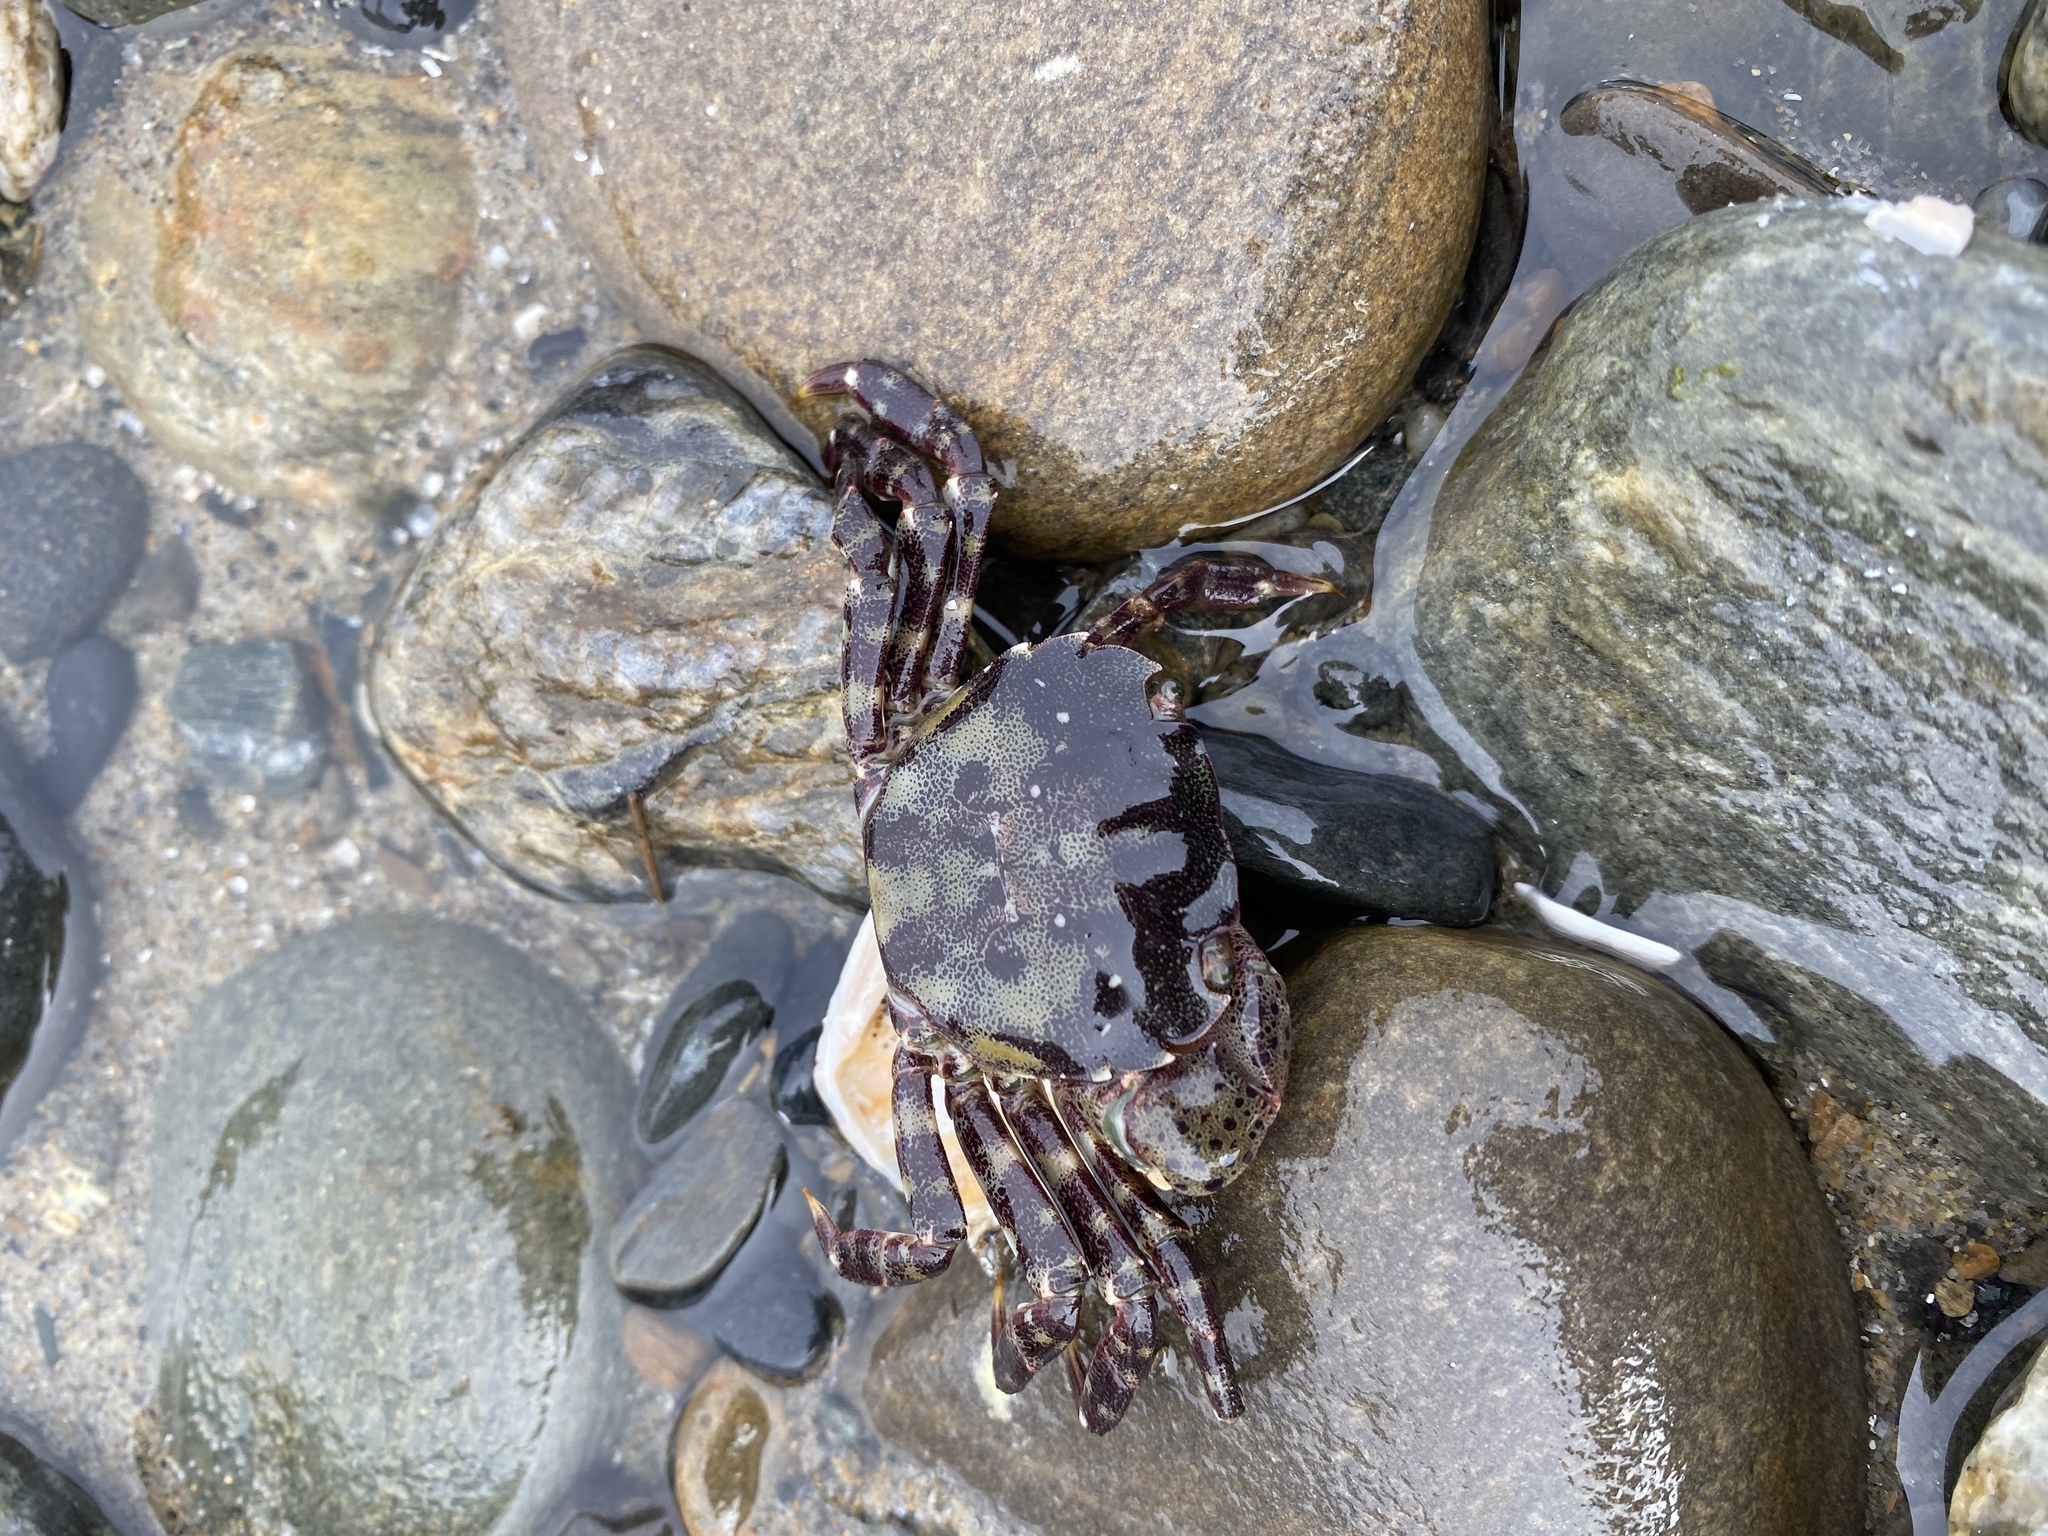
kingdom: Animalia
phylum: Arthropoda
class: Malacostraca
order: Decapoda
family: Varunidae
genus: Hemigrapsus
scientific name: Hemigrapsus sanguineus
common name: Asian shore crab
